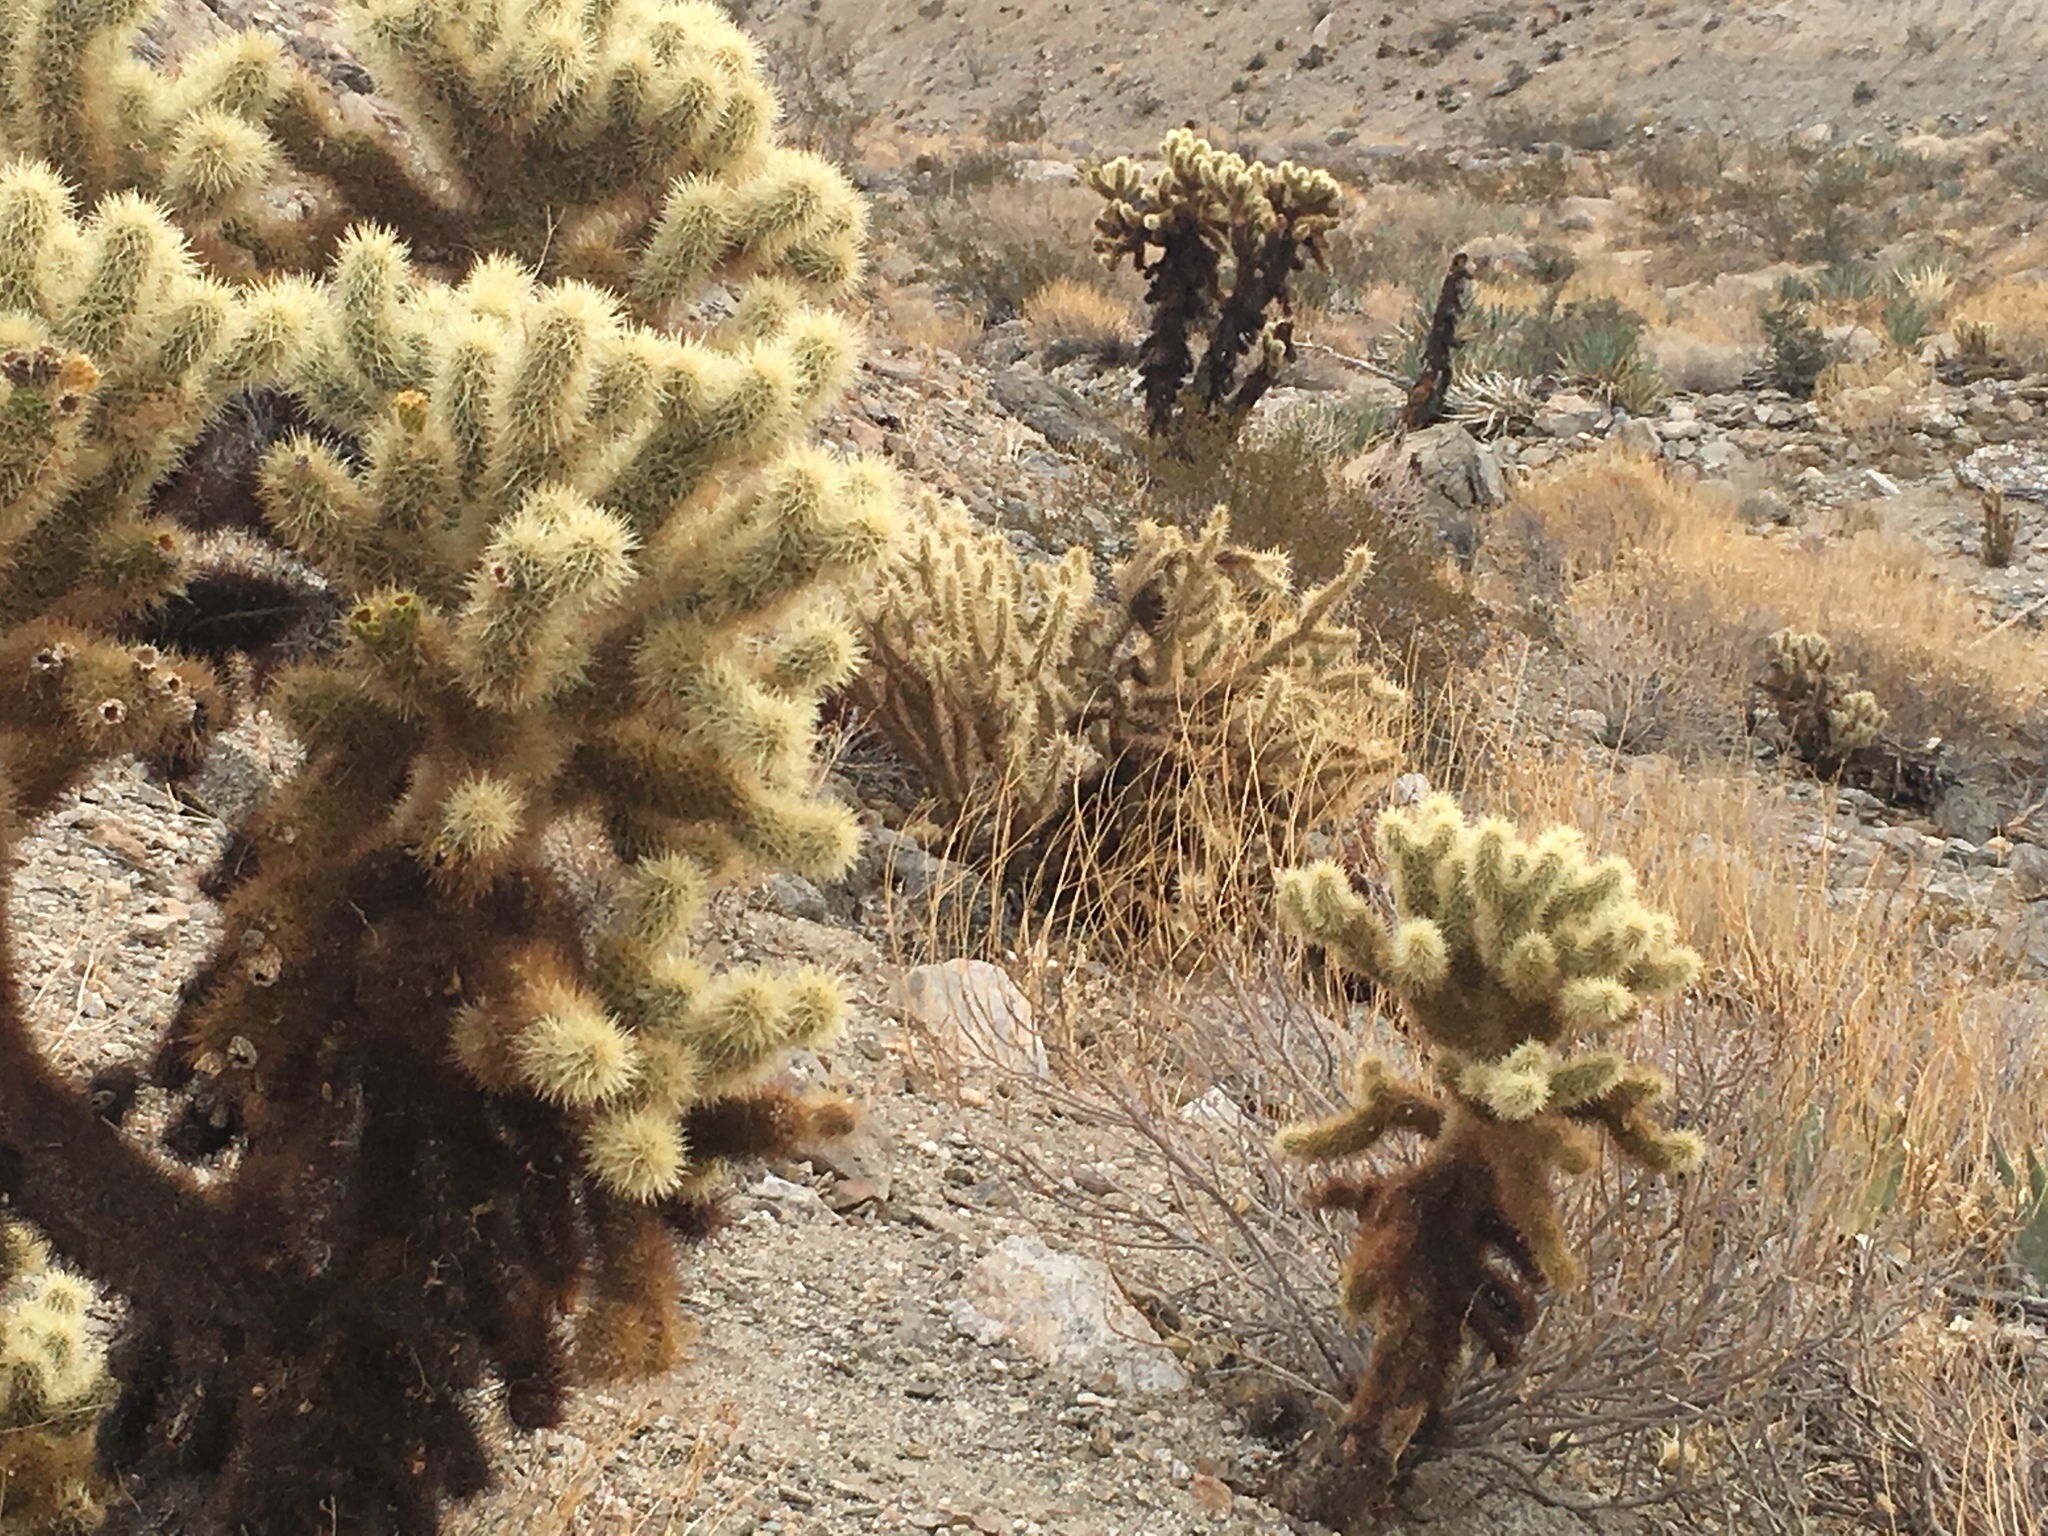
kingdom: Plantae
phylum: Tracheophyta
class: Magnoliopsida
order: Caryophyllales
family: Cactaceae
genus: Cylindropuntia
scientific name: Cylindropuntia fosbergii
